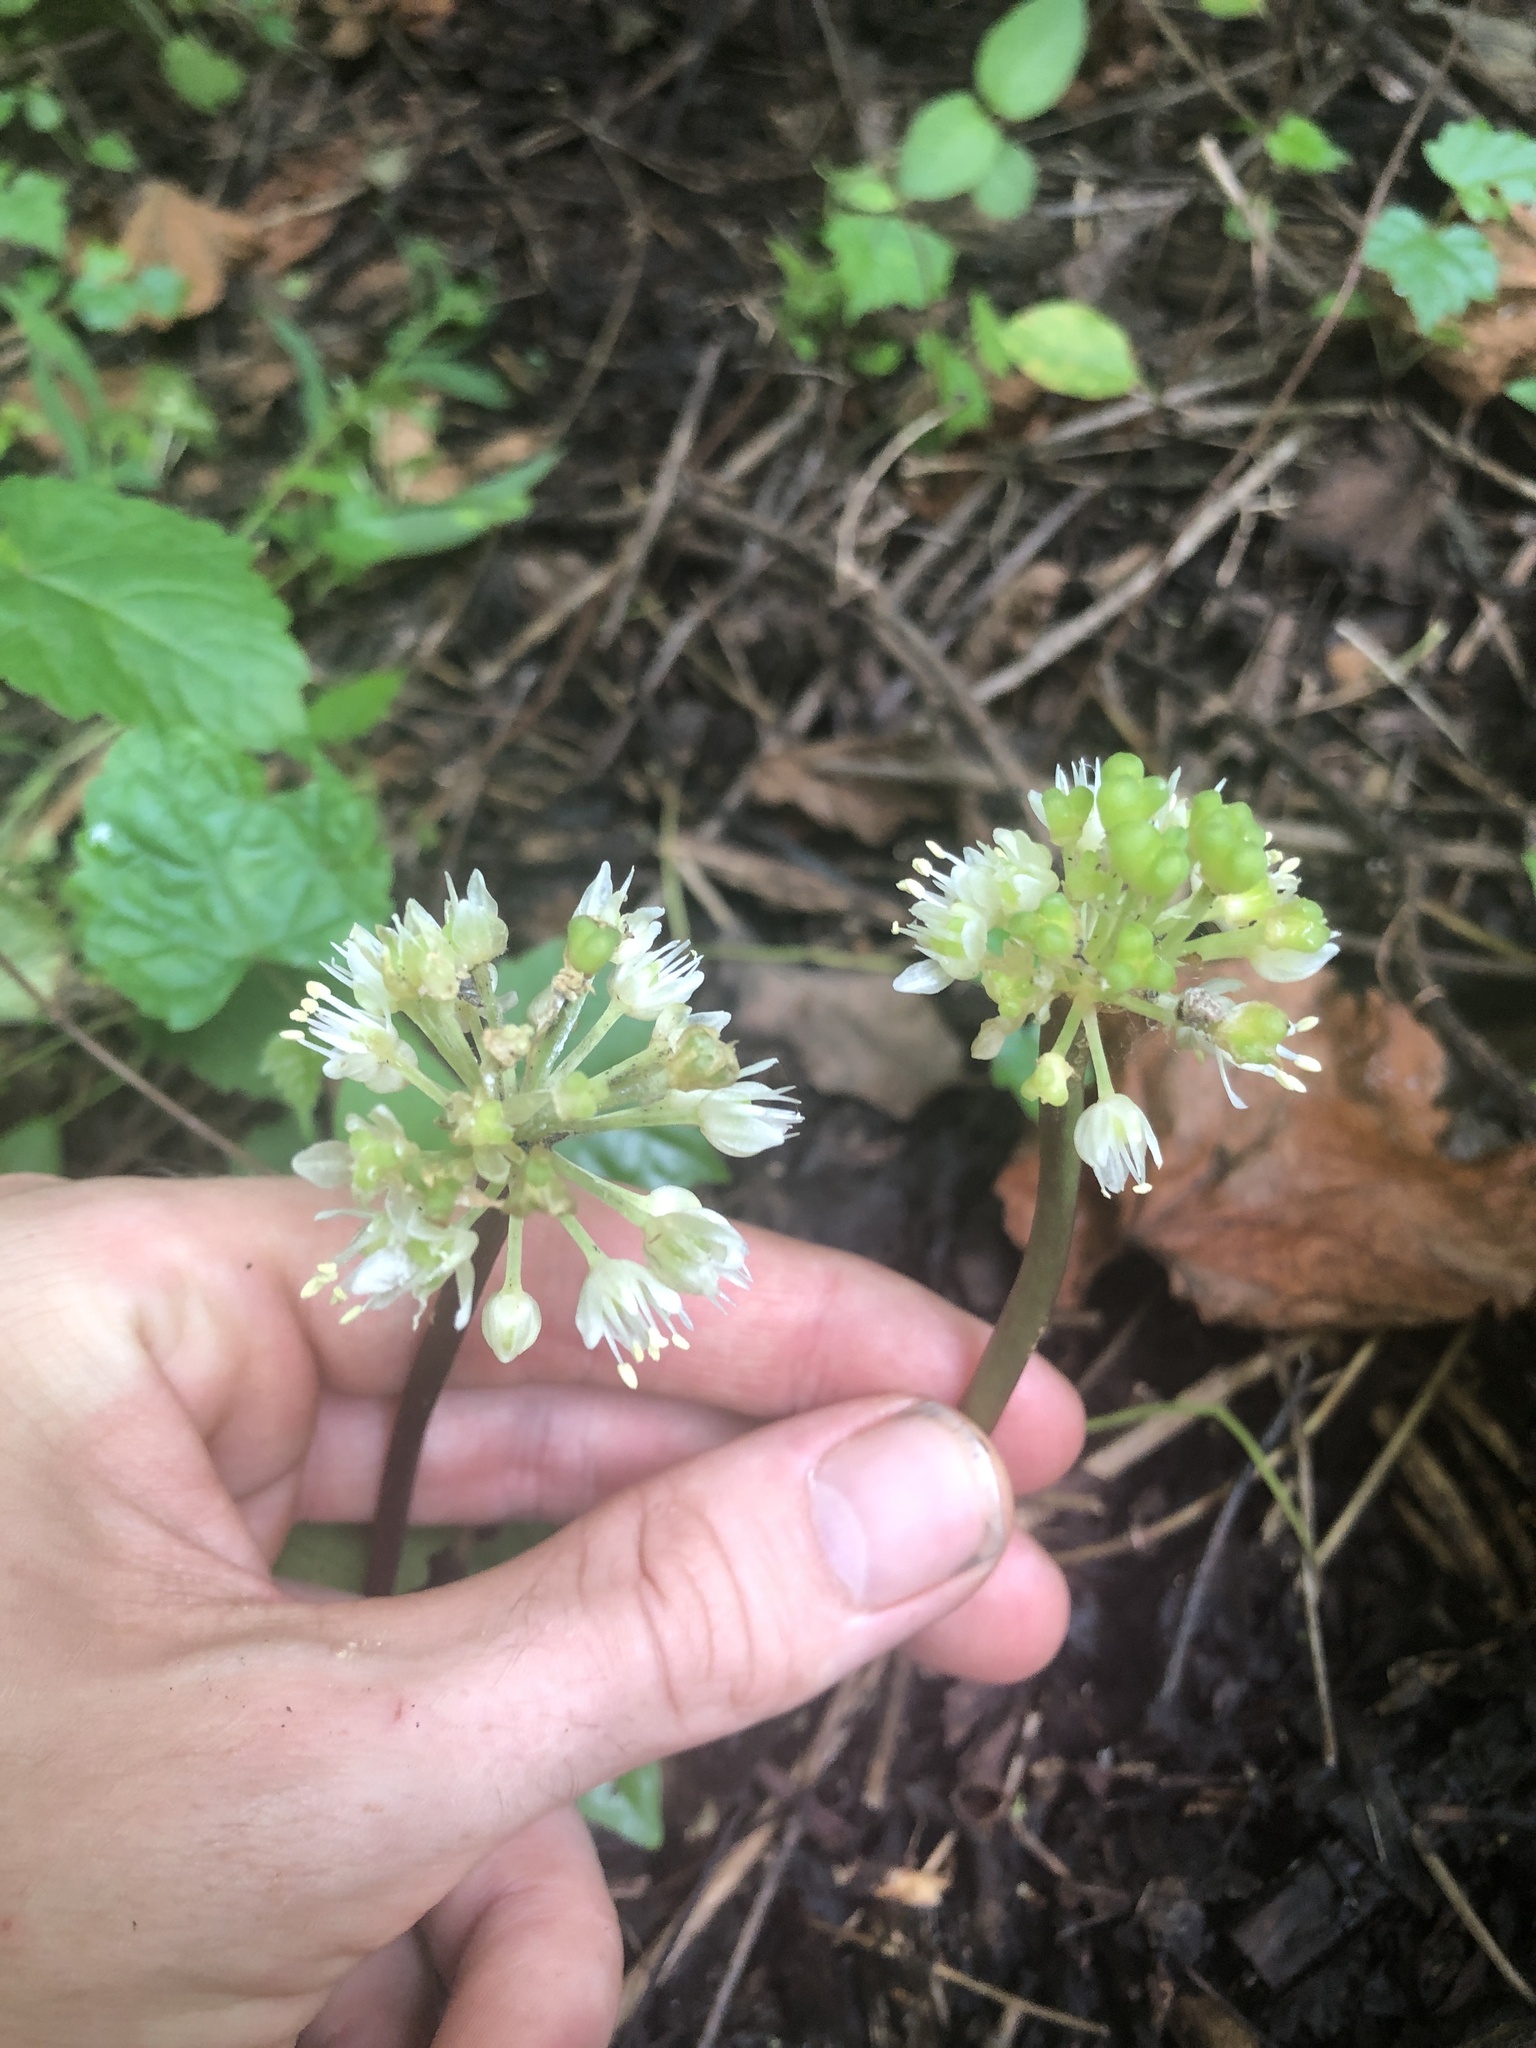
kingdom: Plantae
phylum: Tracheophyta
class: Liliopsida
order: Asparagales
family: Amaryllidaceae
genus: Allium
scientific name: Allium tricoccum
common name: Ramp
